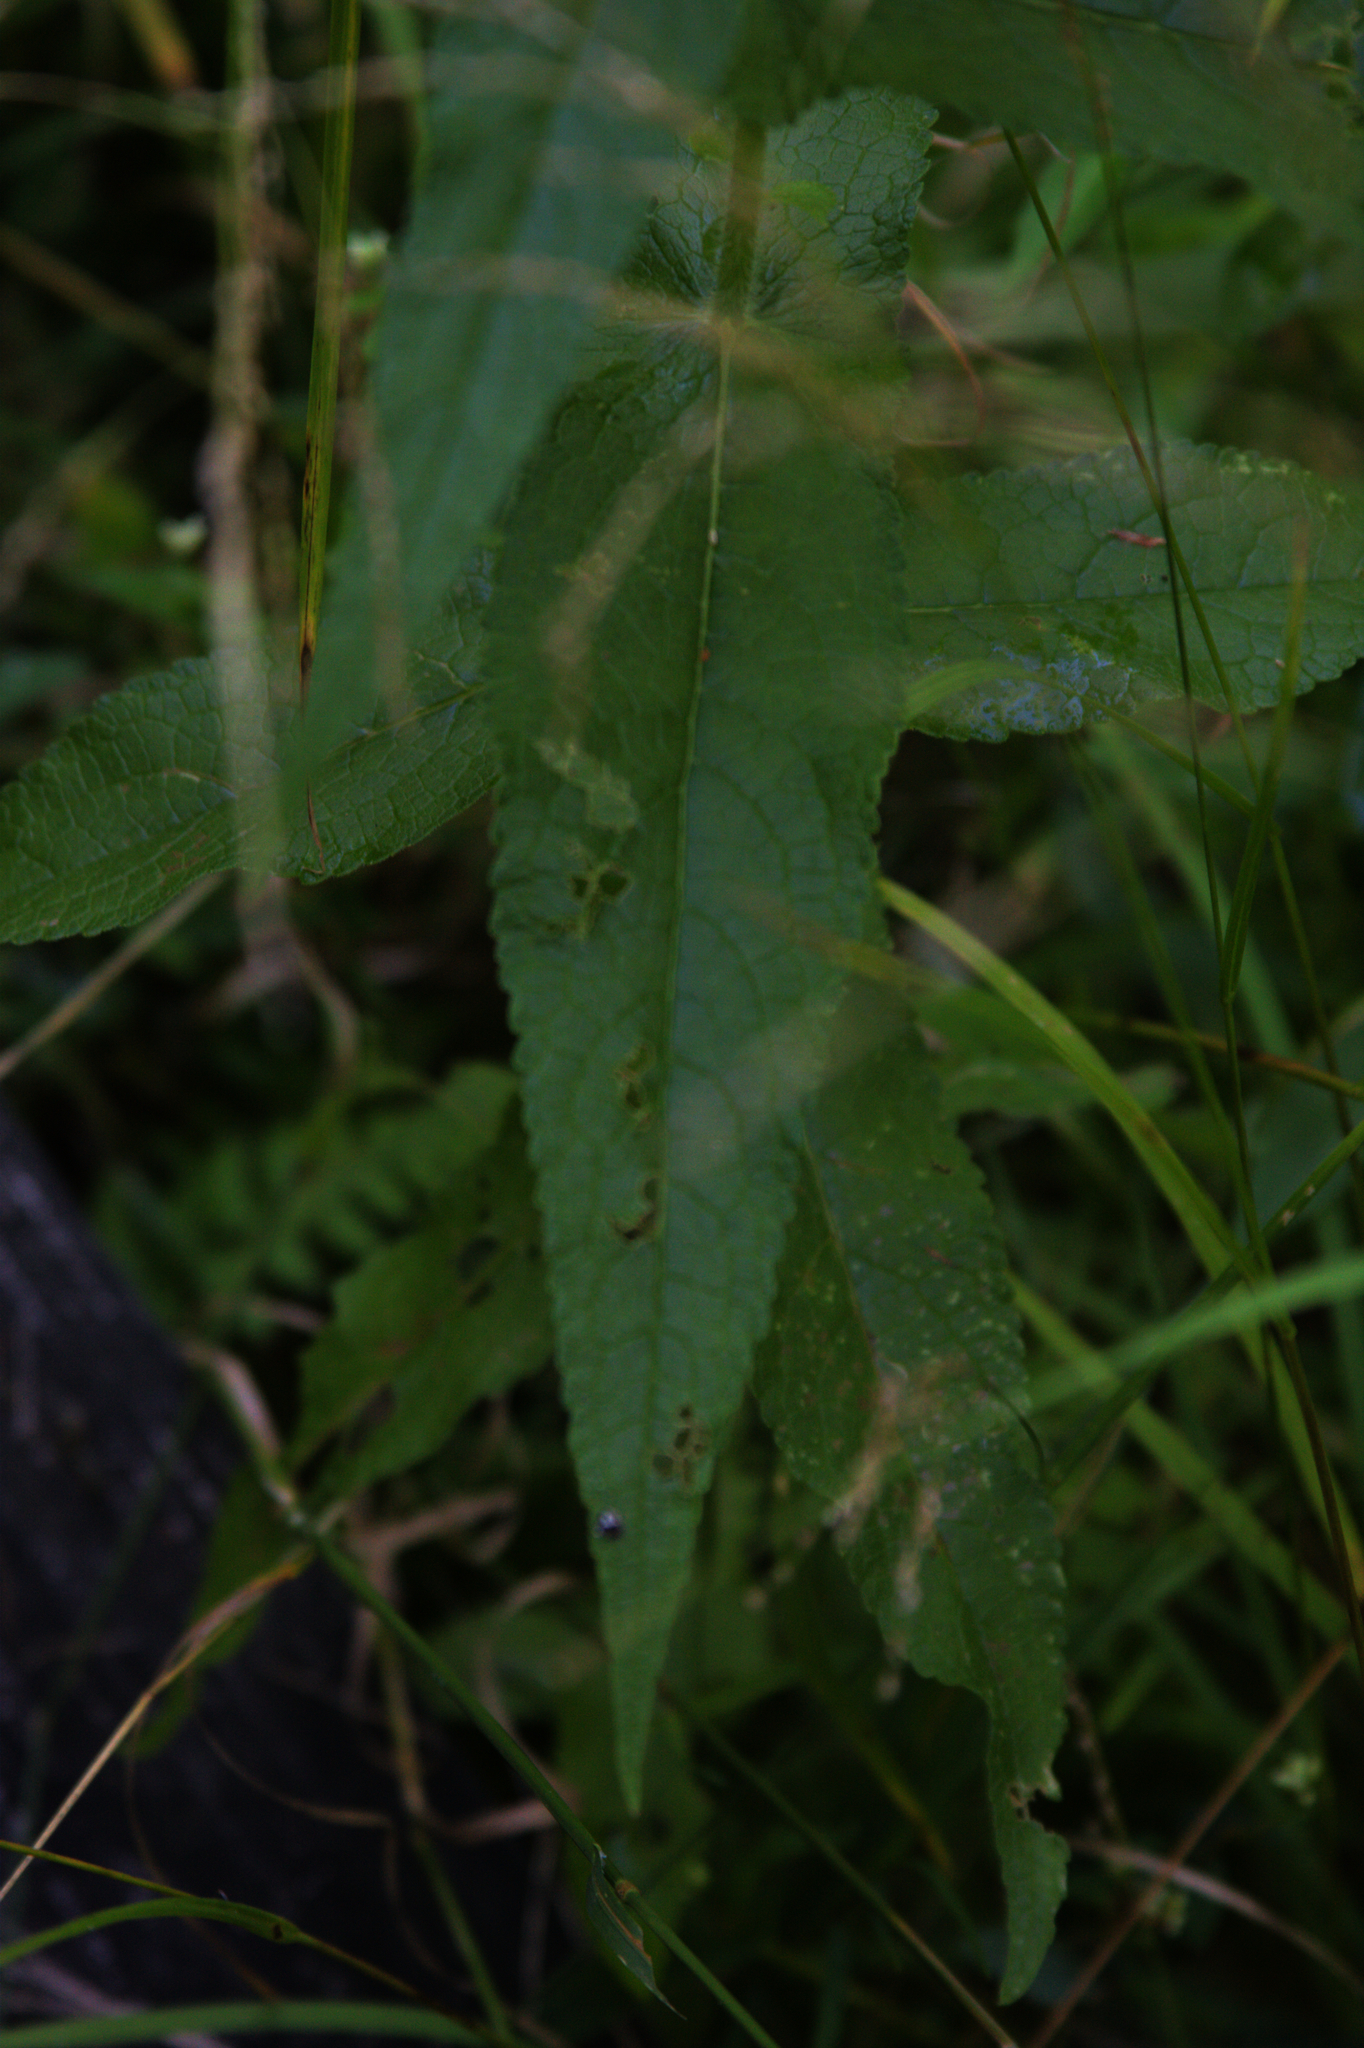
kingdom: Plantae
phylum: Tracheophyta
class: Magnoliopsida
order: Asterales
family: Asteraceae
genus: Eupatorium
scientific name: Eupatorium perfoliatum
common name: Boneset
